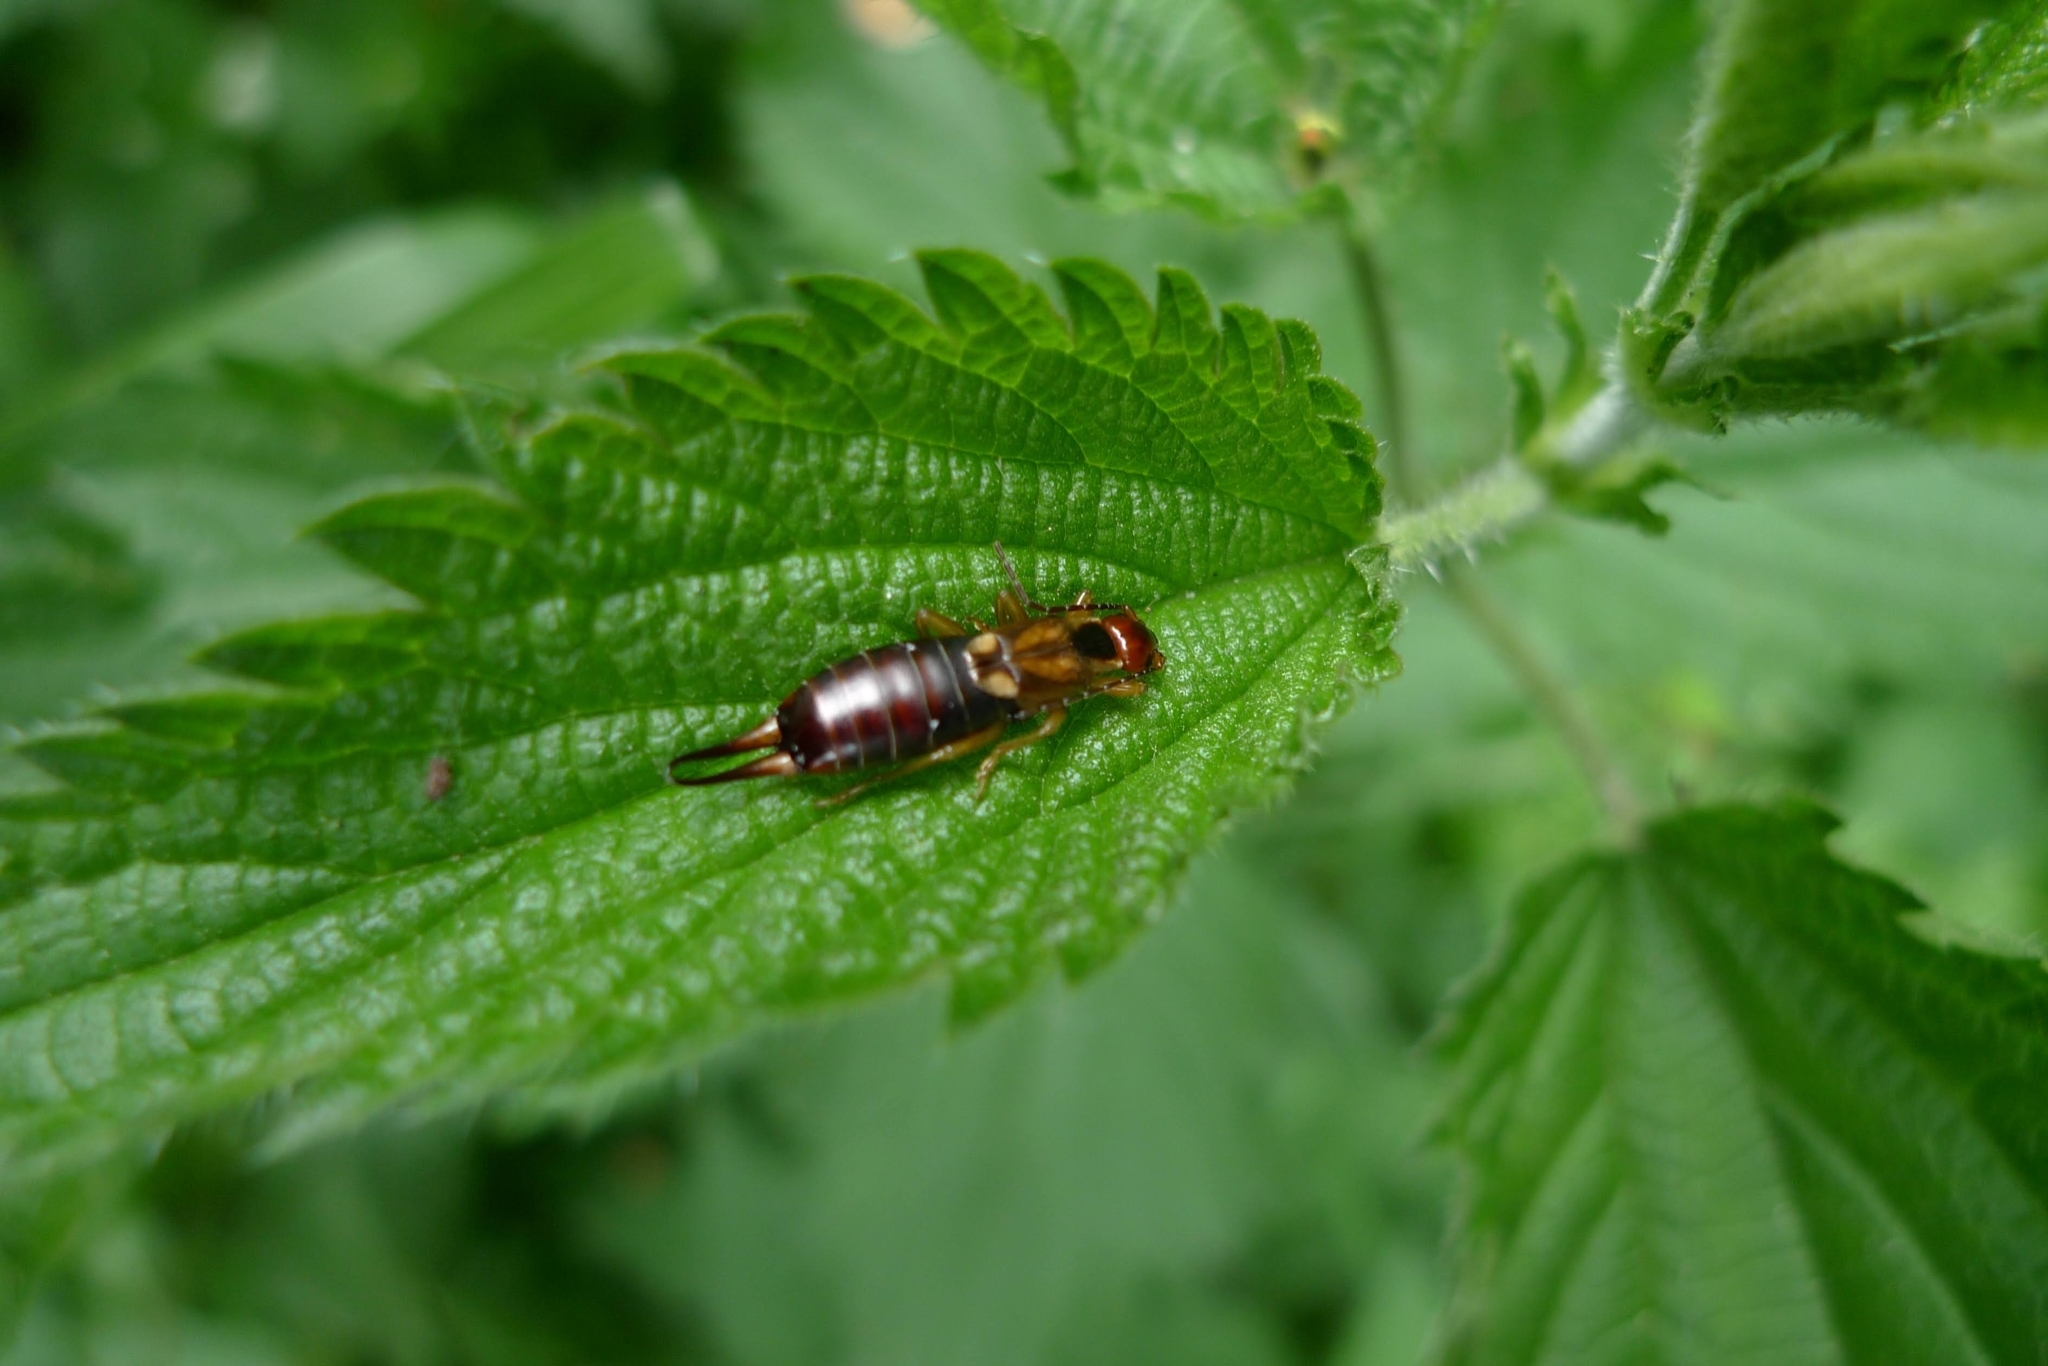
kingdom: Animalia
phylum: Arthropoda
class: Insecta
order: Dermaptera
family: Forficulidae
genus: Forficula
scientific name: Forficula
